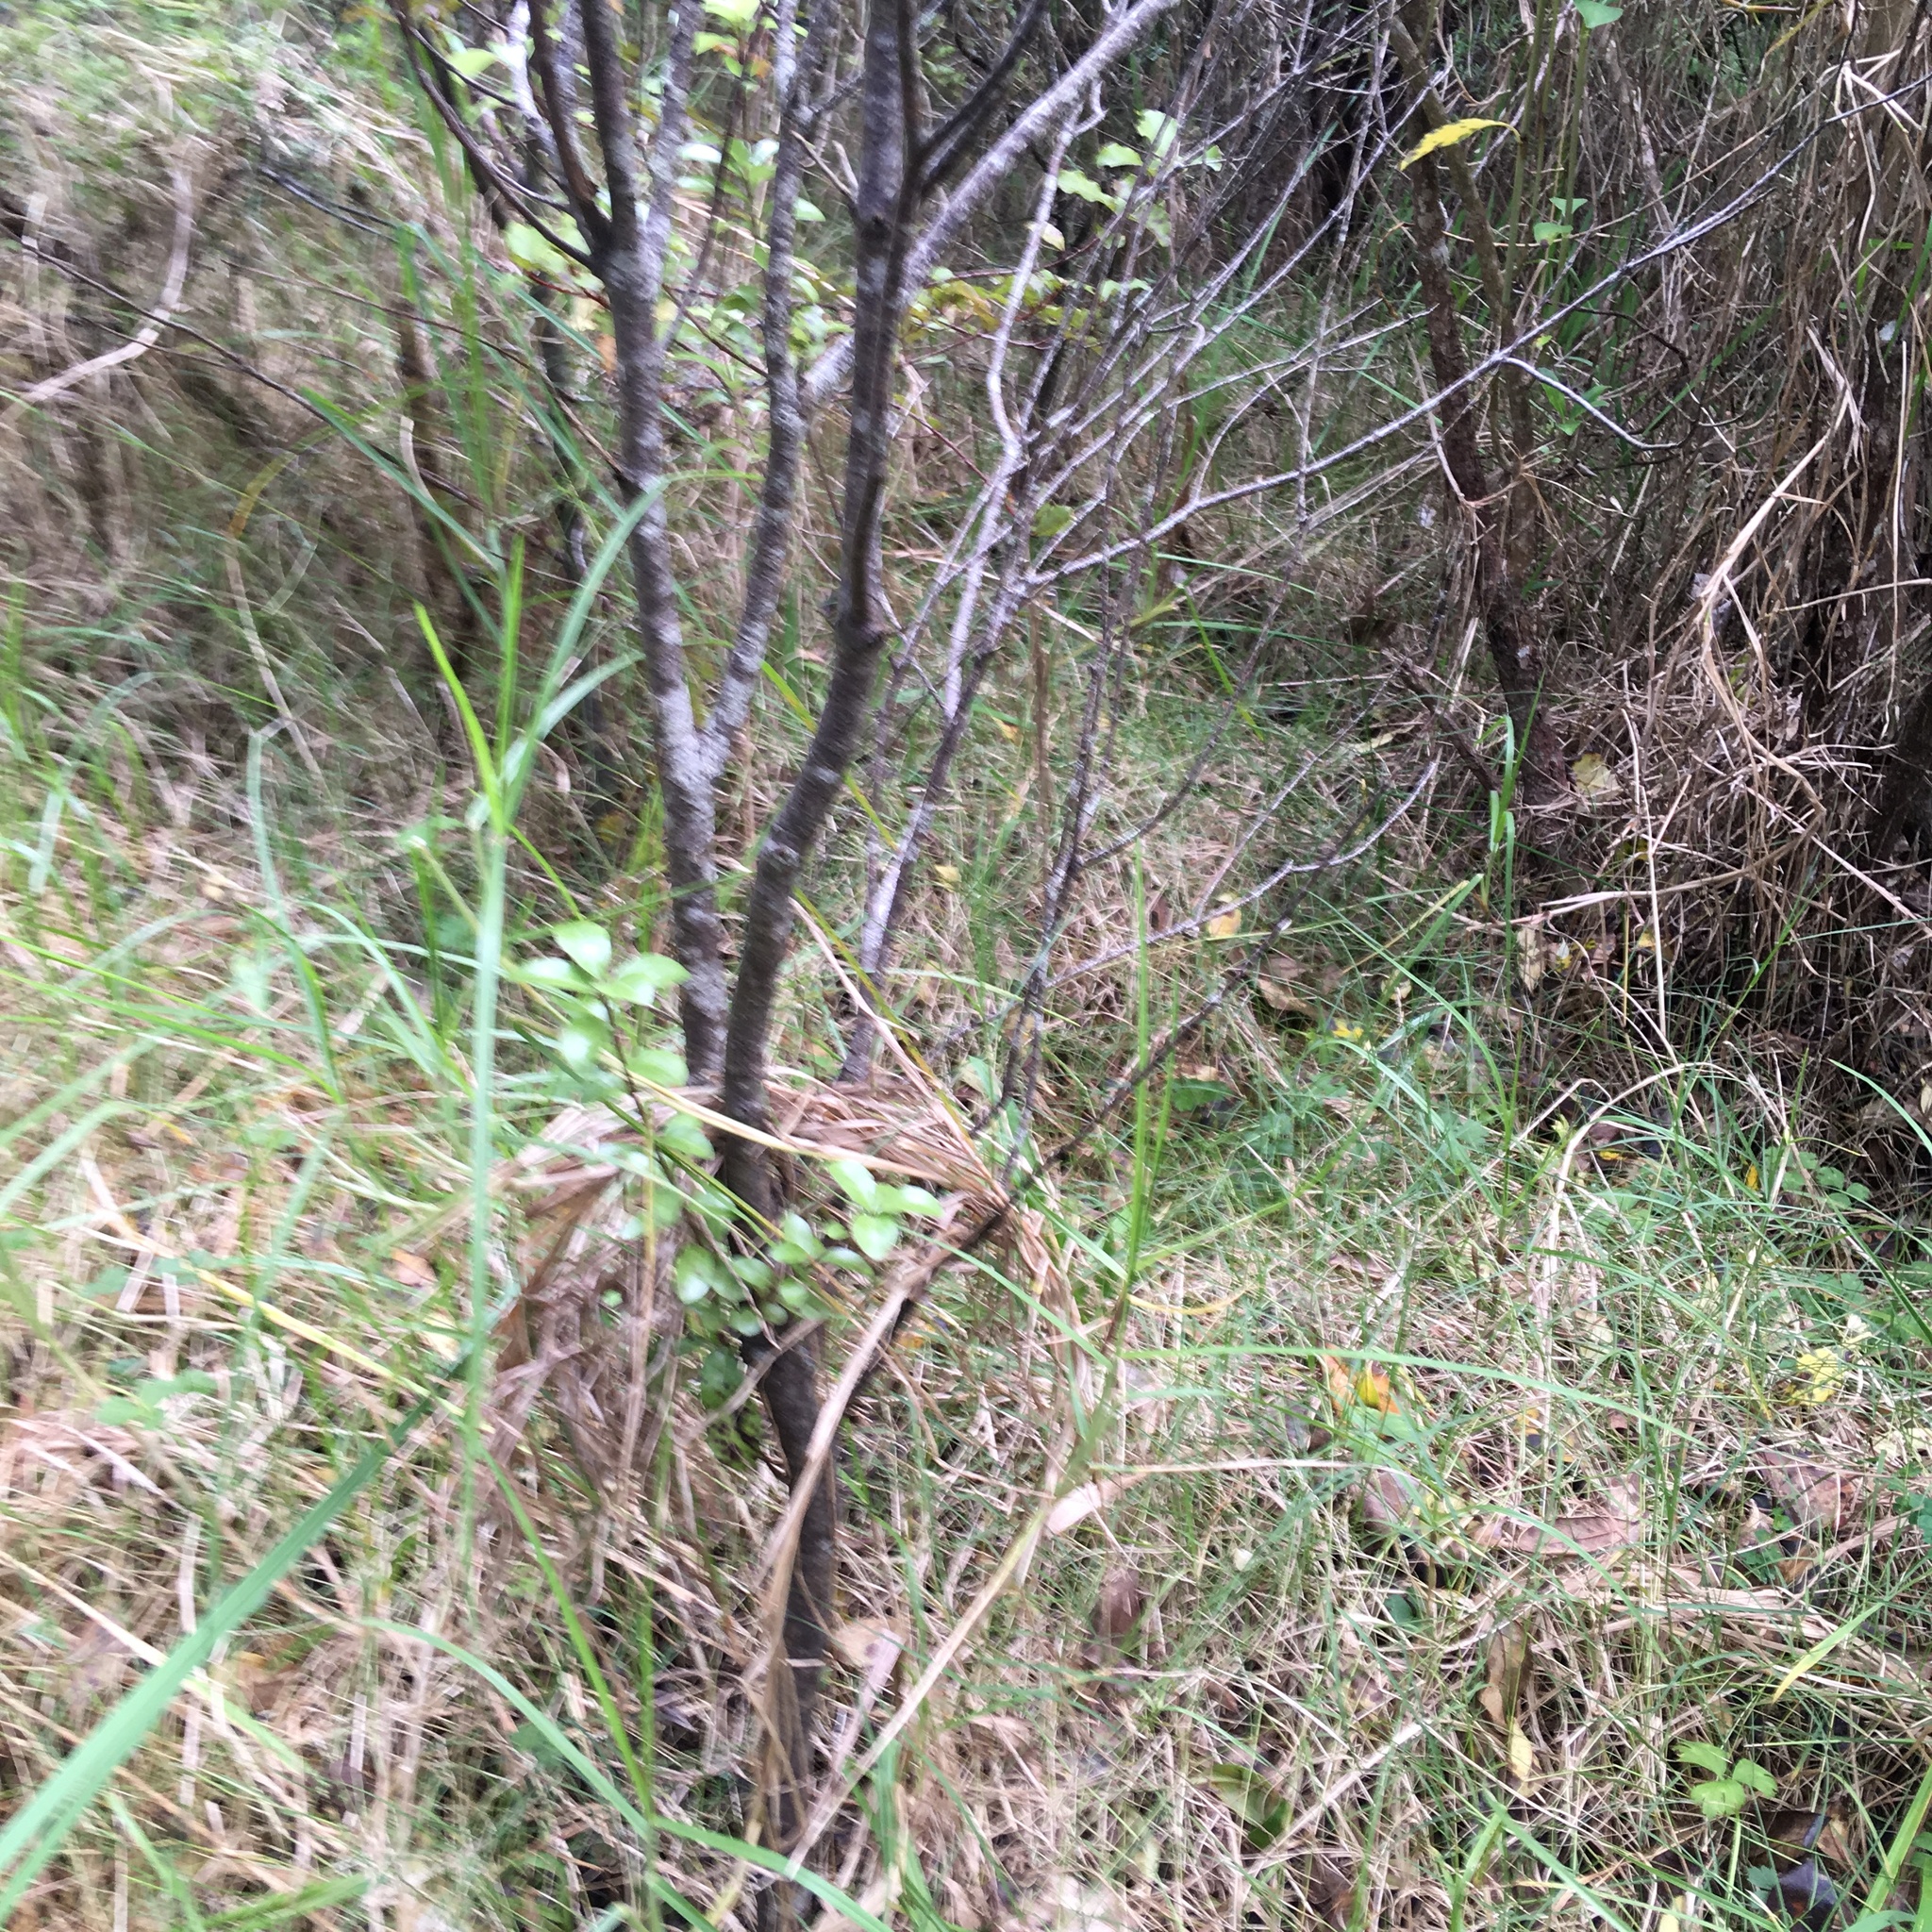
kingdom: Plantae
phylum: Tracheophyta
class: Liliopsida
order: Poales
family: Poaceae
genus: Cenchrus
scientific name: Cenchrus clandestinus
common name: Kikuyugrass
